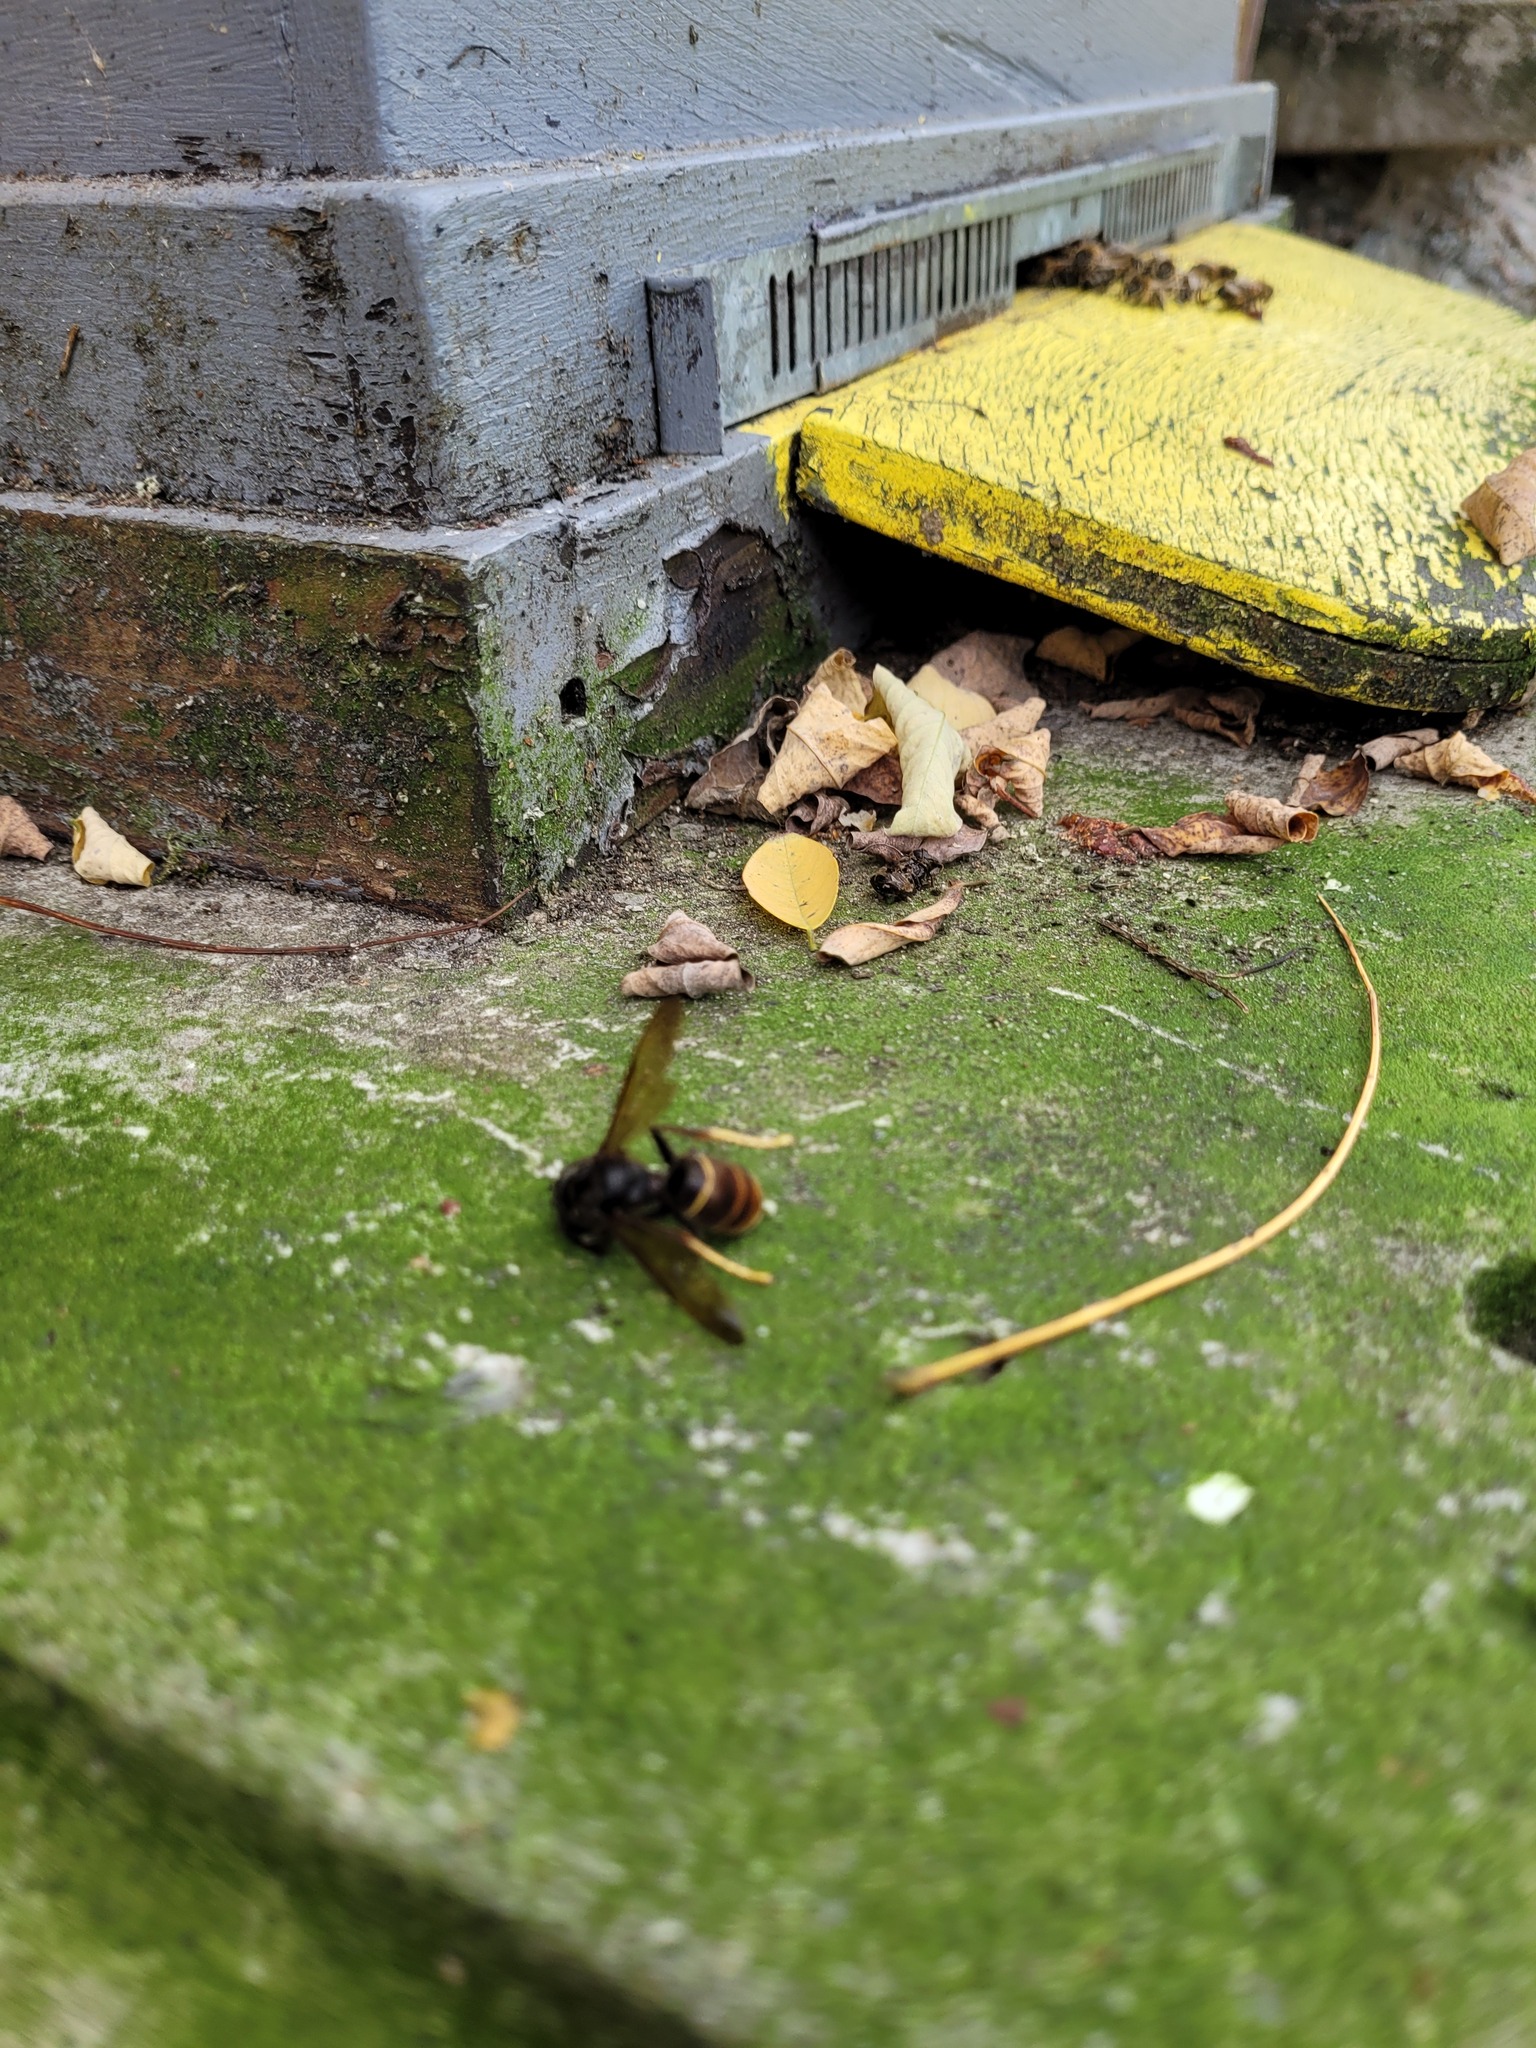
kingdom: Animalia
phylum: Arthropoda
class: Insecta
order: Hymenoptera
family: Vespidae
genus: Vespa
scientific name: Vespa velutina
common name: Asian hornet
